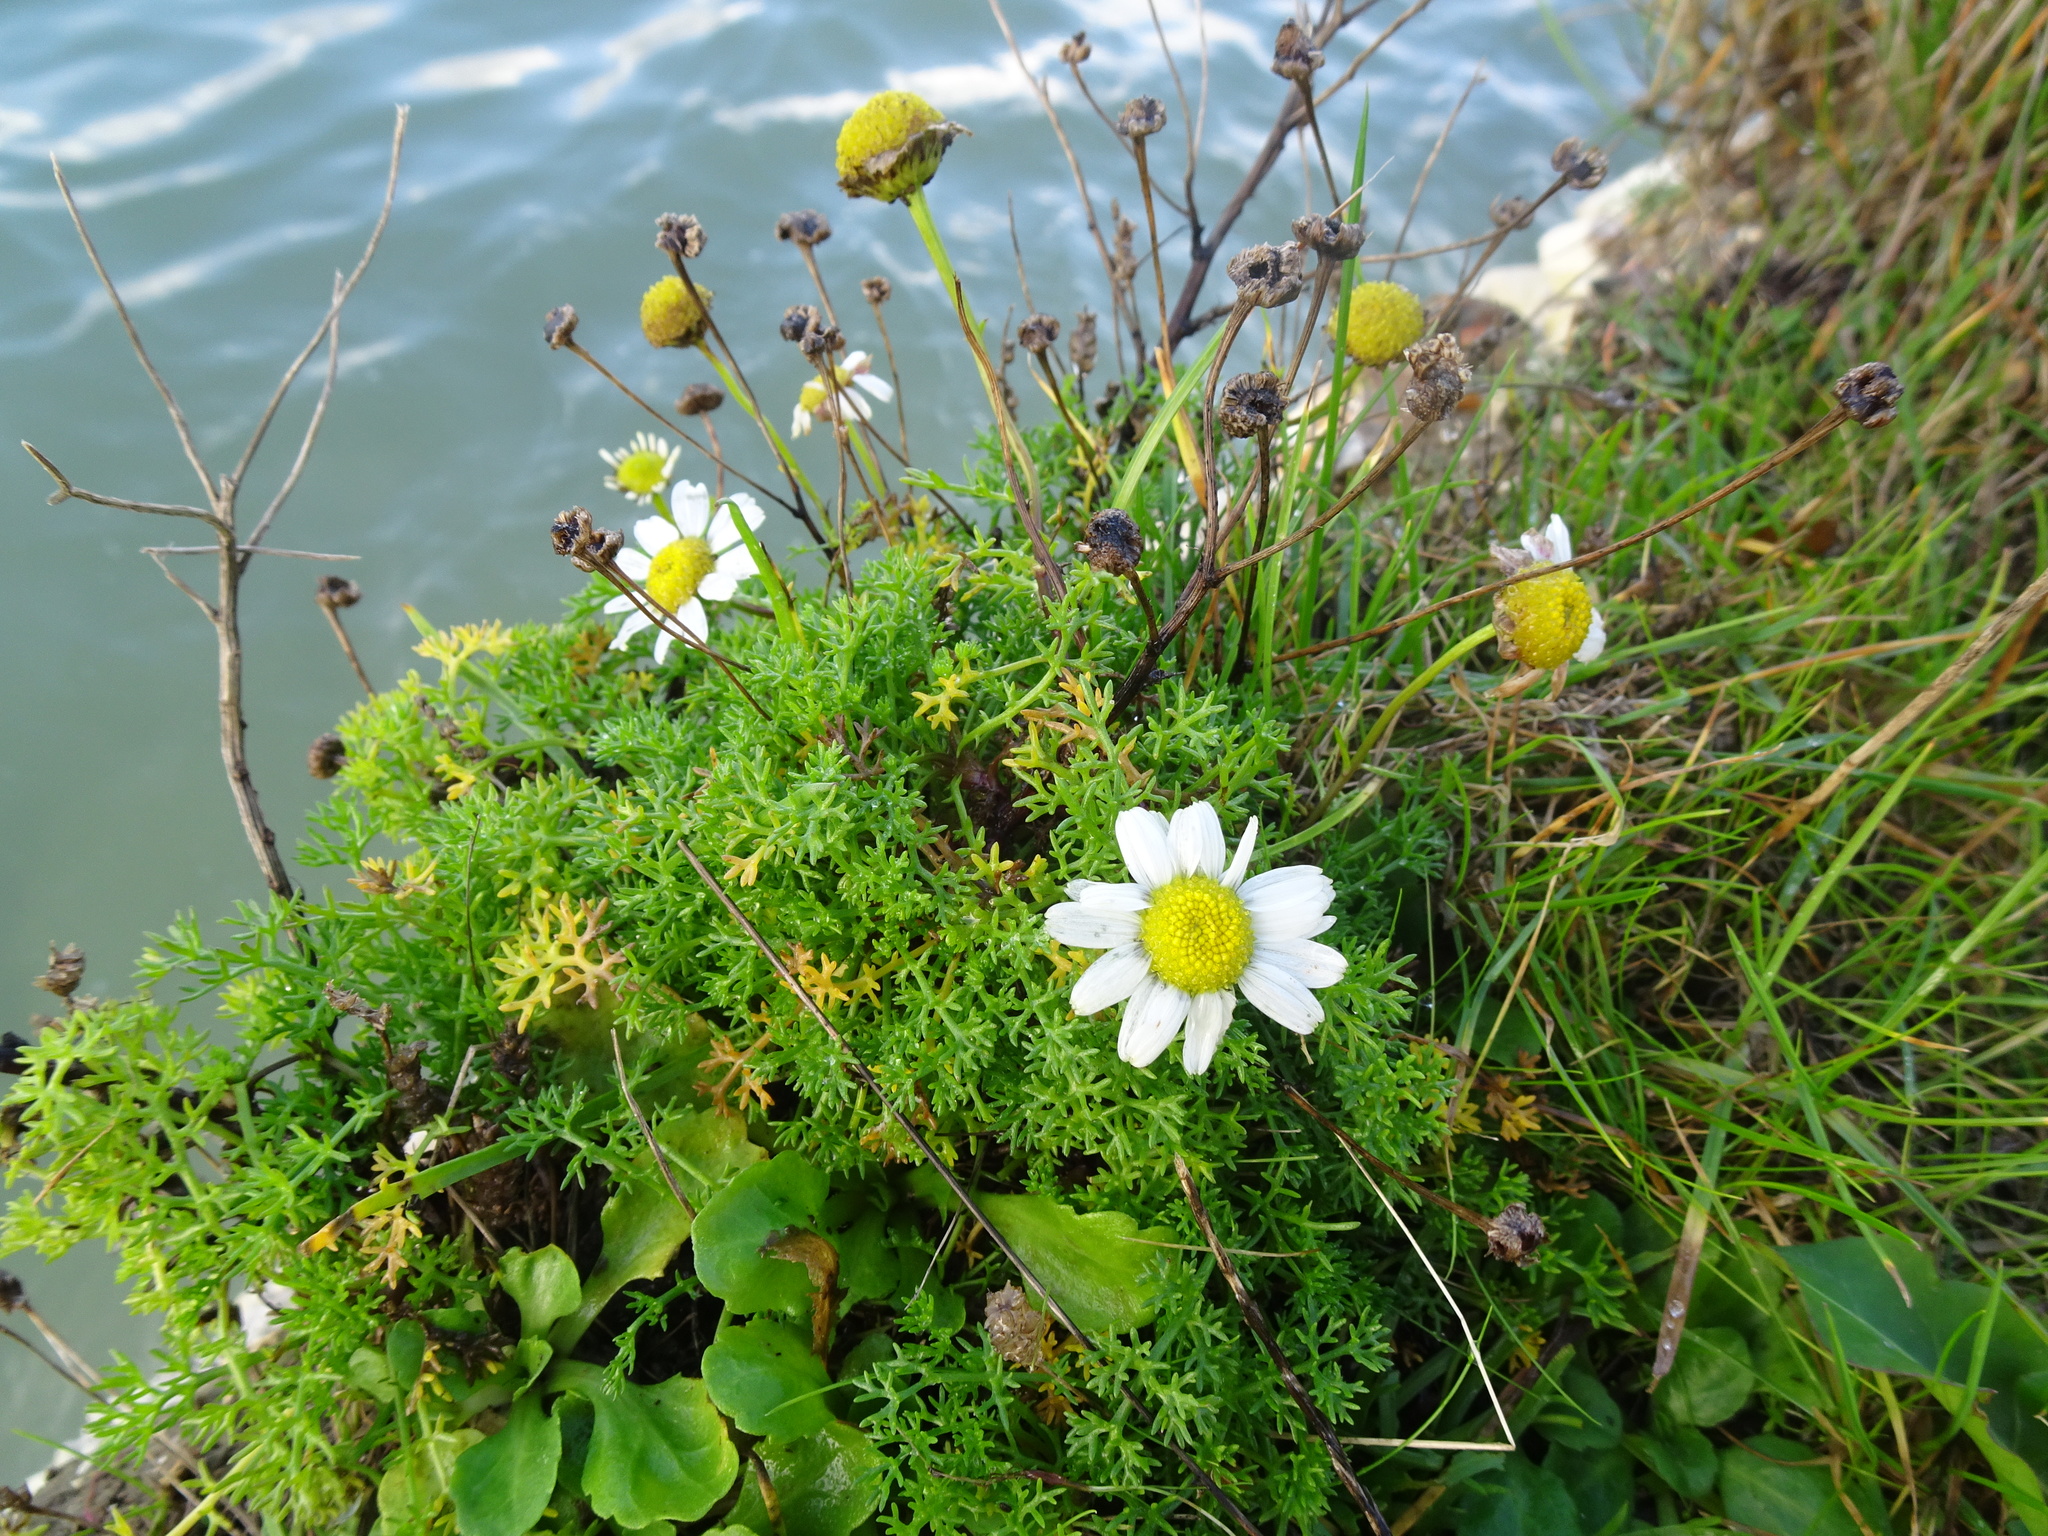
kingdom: Plantae
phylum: Tracheophyta
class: Magnoliopsida
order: Asterales
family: Asteraceae
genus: Tripleurospermum
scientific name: Tripleurospermum maritimum
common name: Sea mayweed
